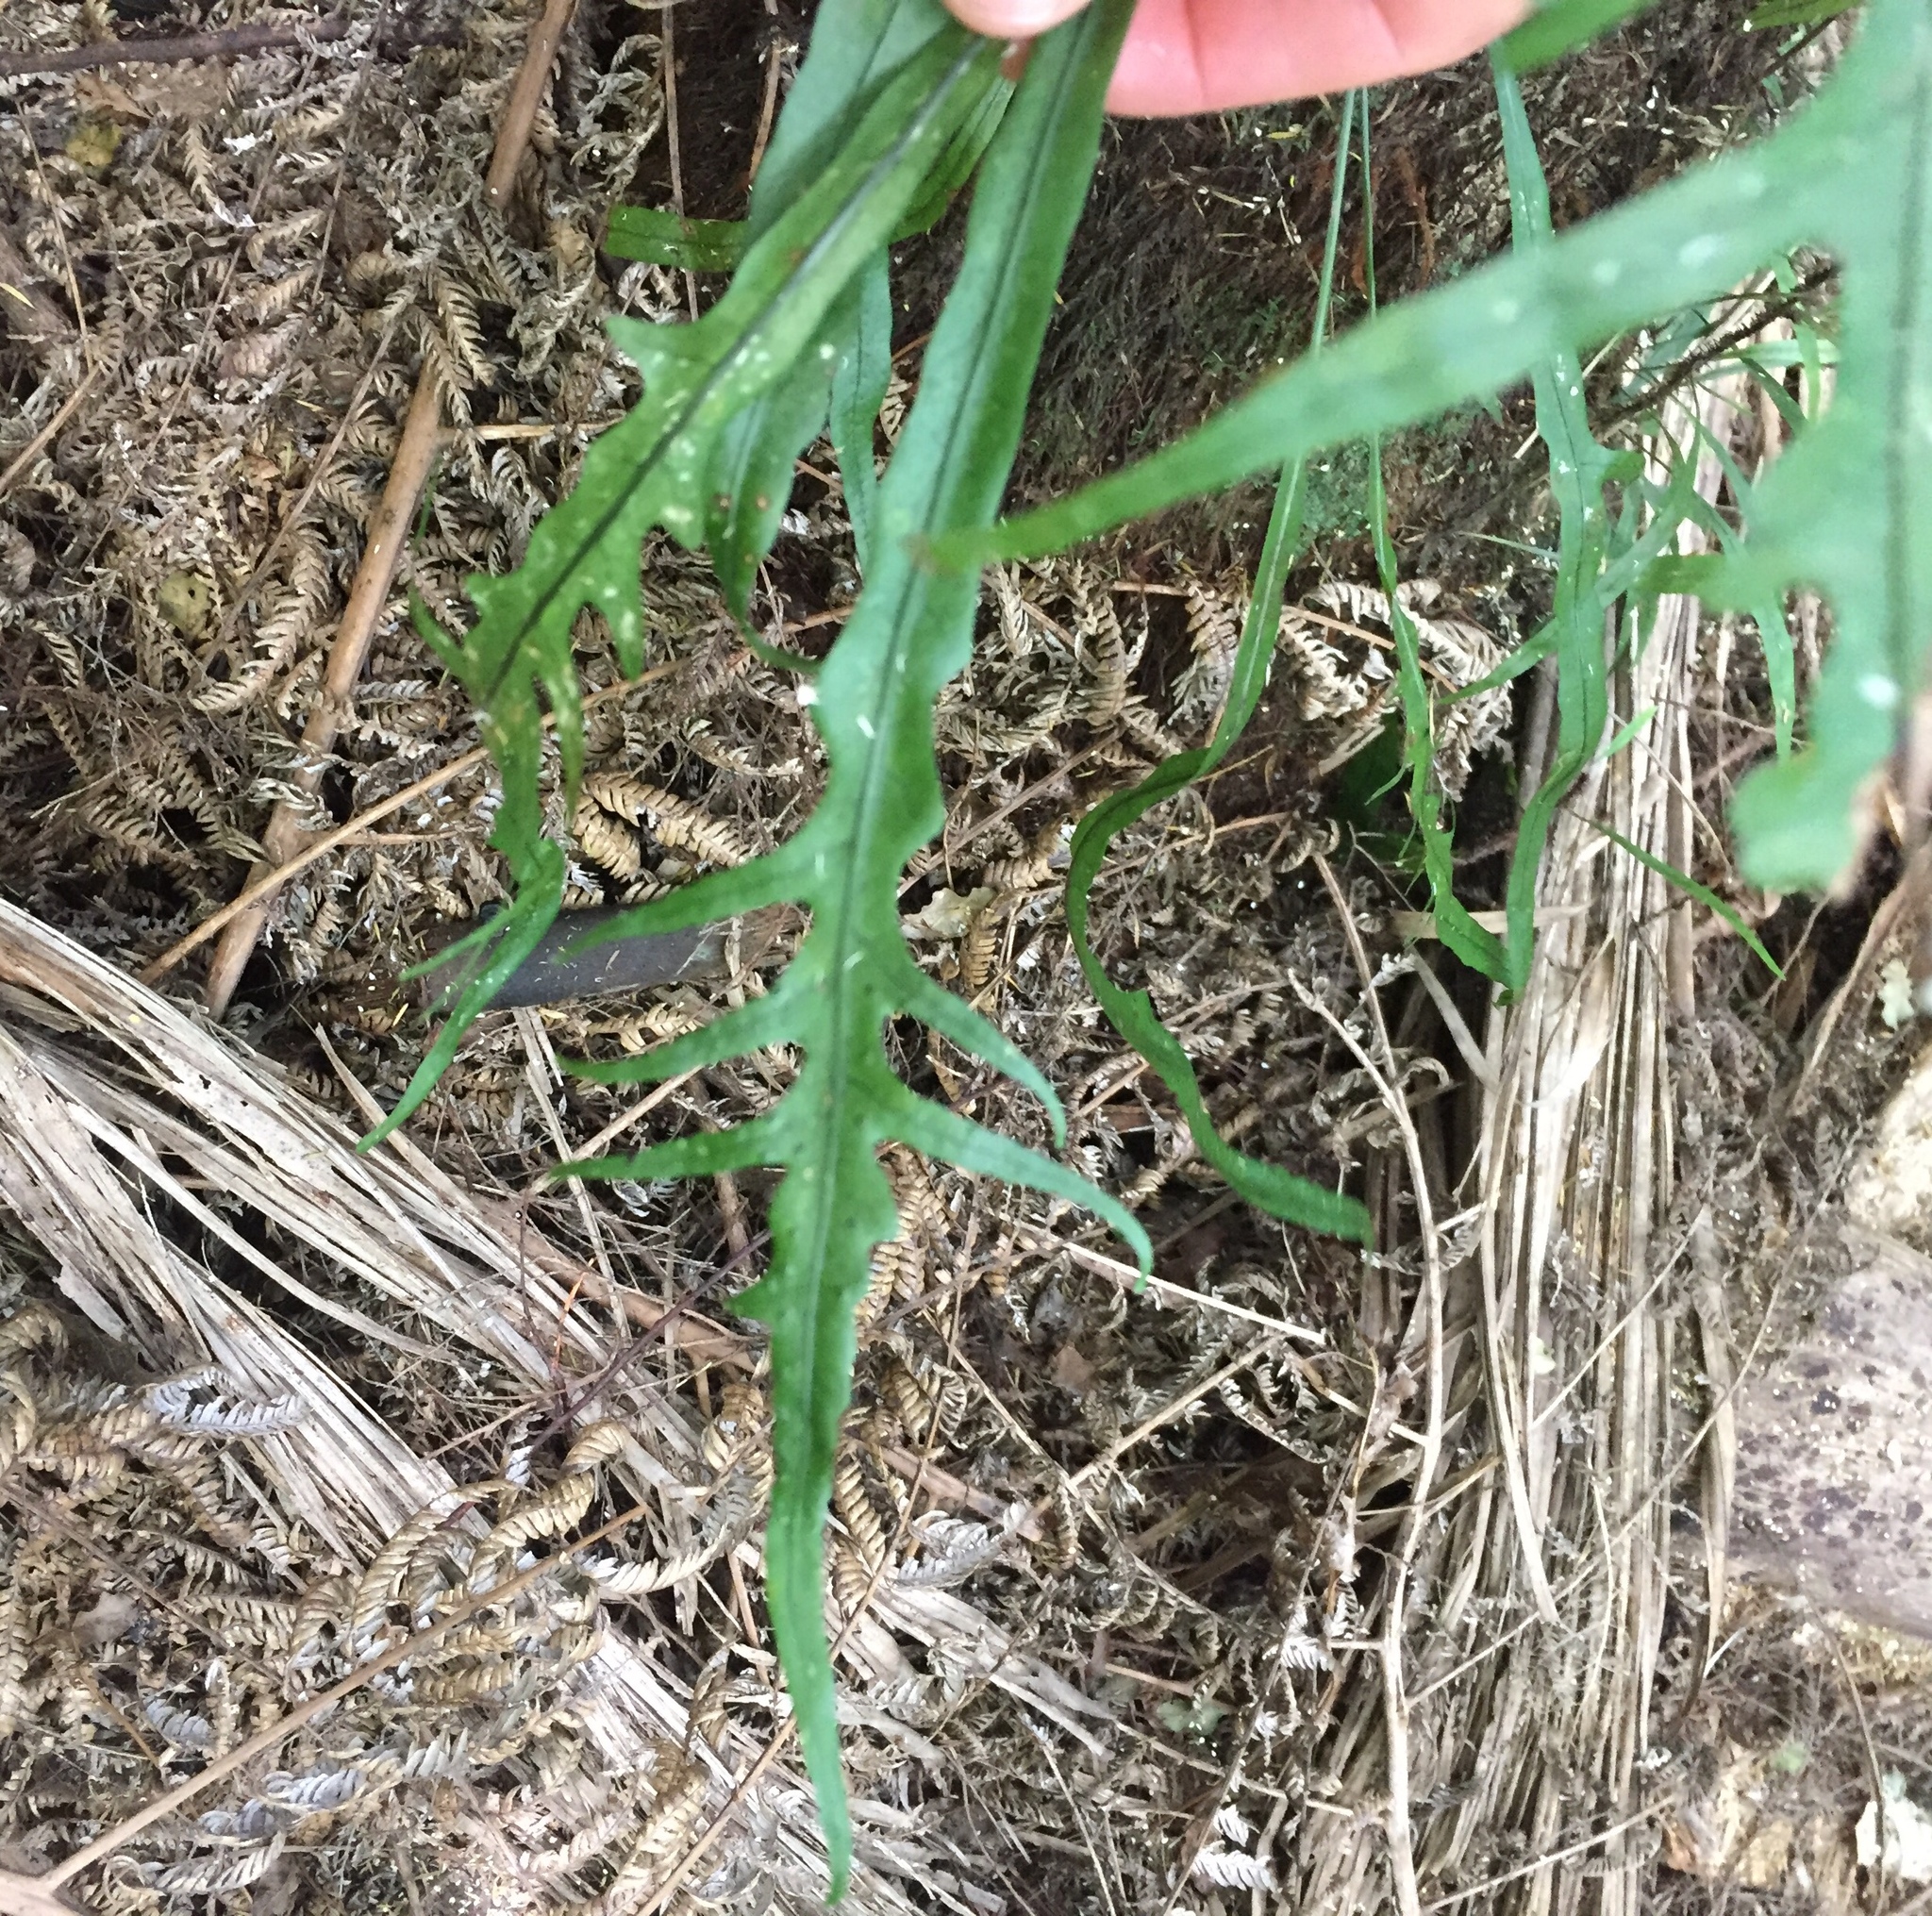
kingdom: Plantae
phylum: Tracheophyta
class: Polypodiopsida
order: Polypodiales
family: Polypodiaceae
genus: Lecanopteris
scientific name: Lecanopteris scandens
